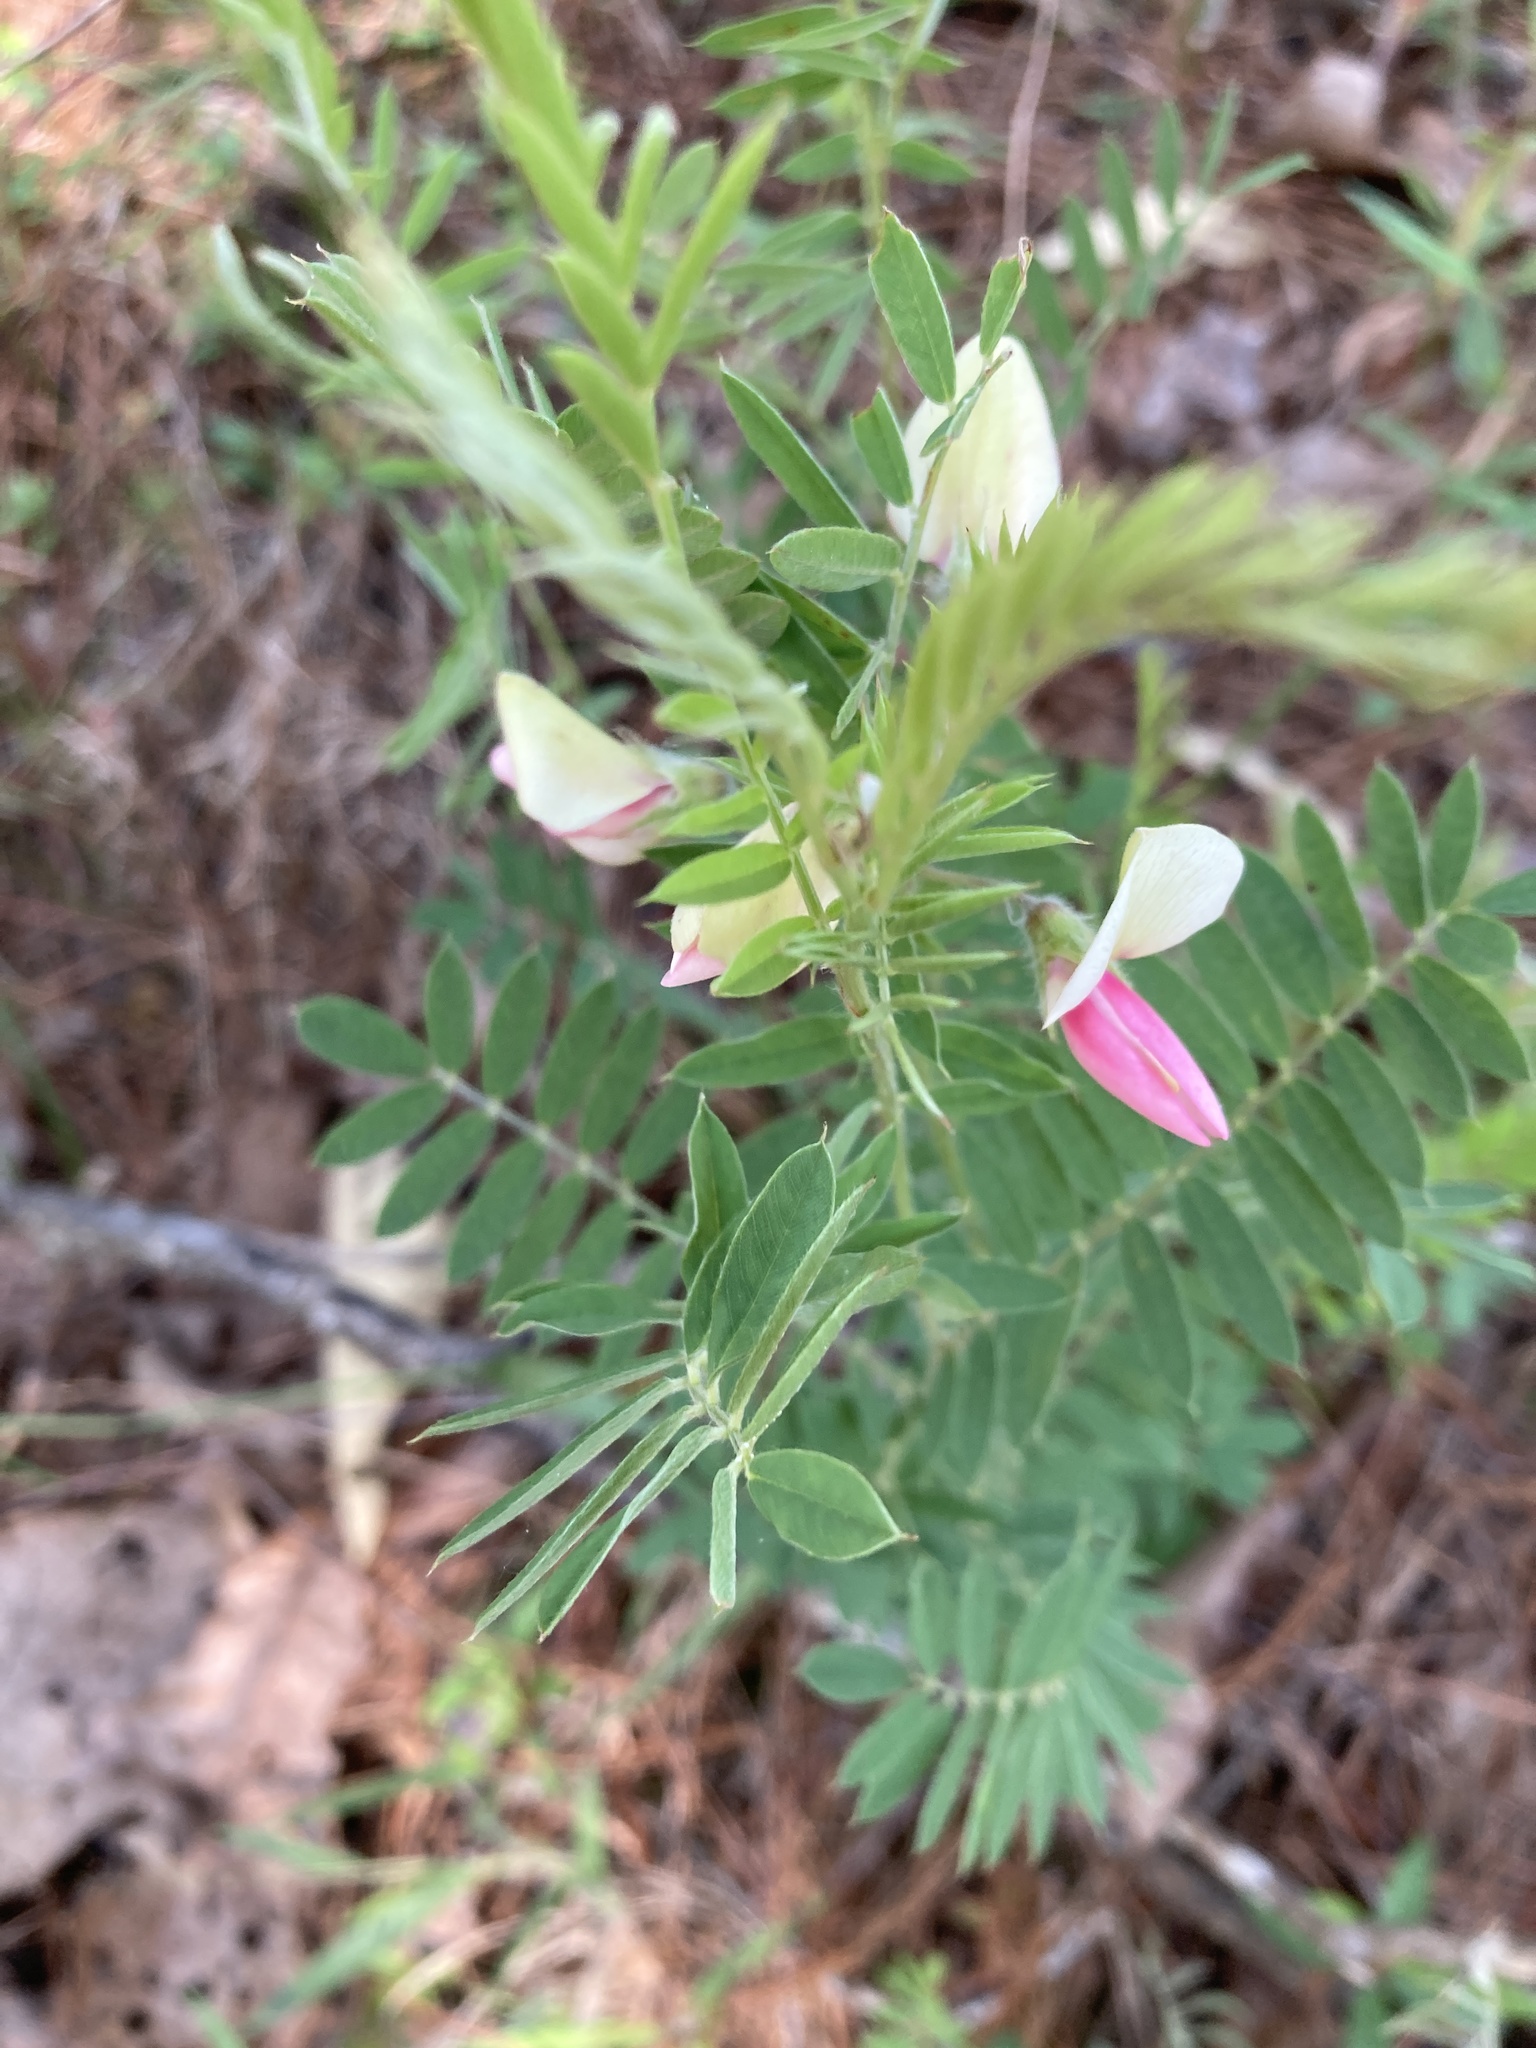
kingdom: Plantae
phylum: Tracheophyta
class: Magnoliopsida
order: Fabales
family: Fabaceae
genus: Tephrosia
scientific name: Tephrosia virginiana
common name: Rabbit-pea
